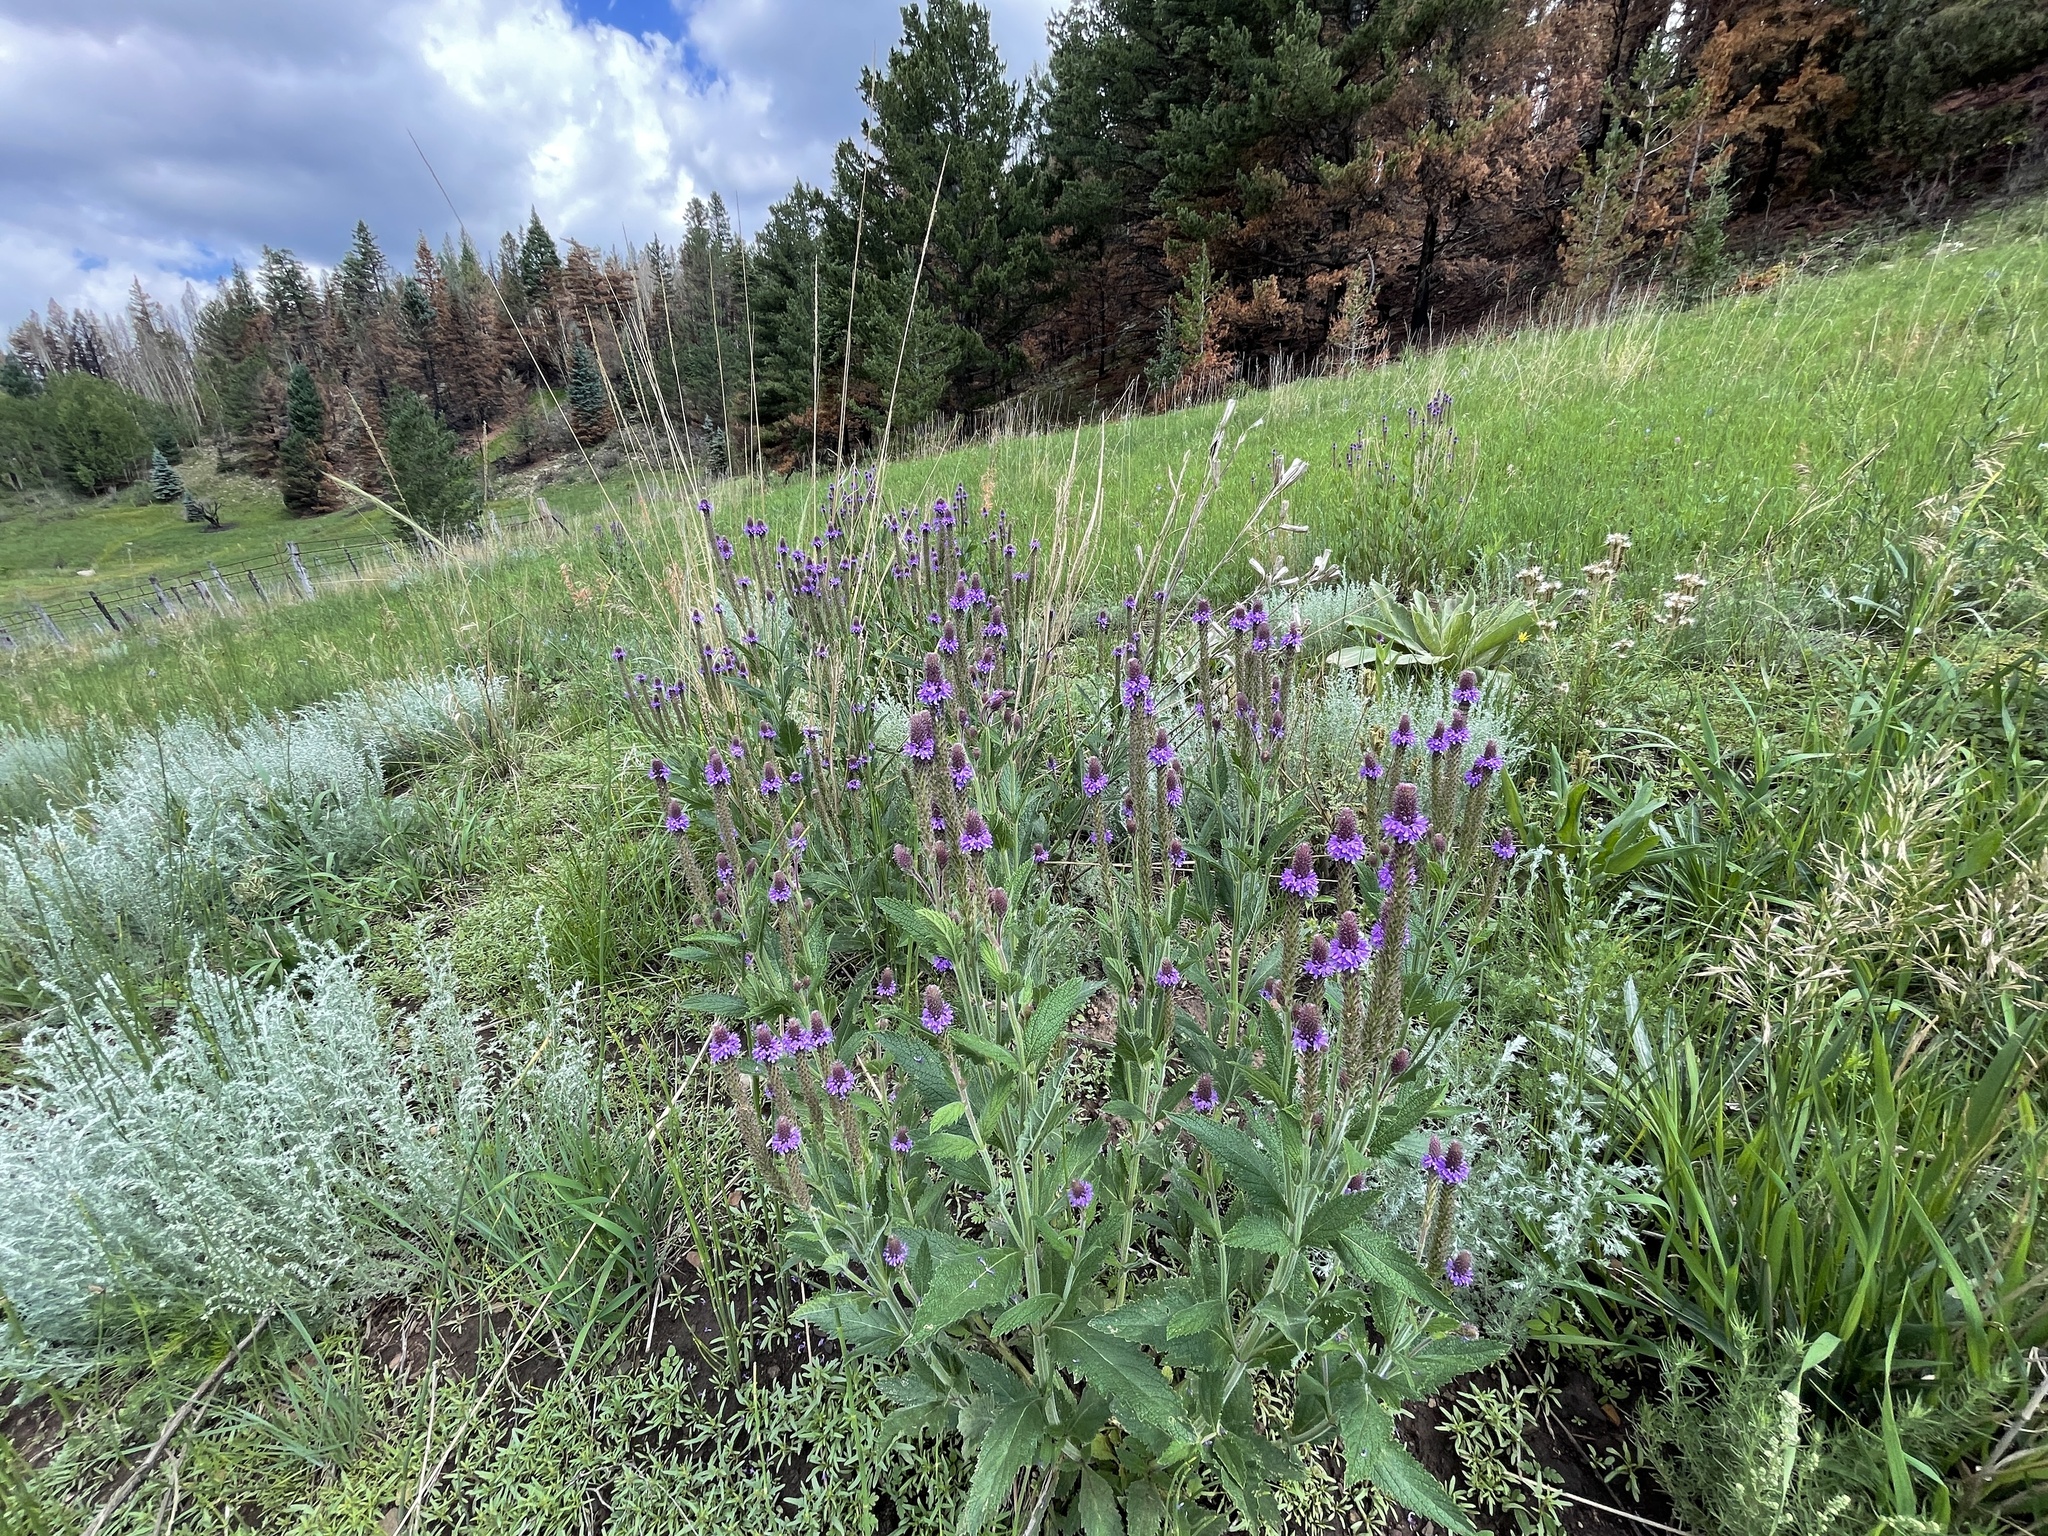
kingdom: Plantae
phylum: Tracheophyta
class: Magnoliopsida
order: Lamiales
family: Verbenaceae
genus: Verbena
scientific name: Verbena macdougalii
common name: New mexico vervain
